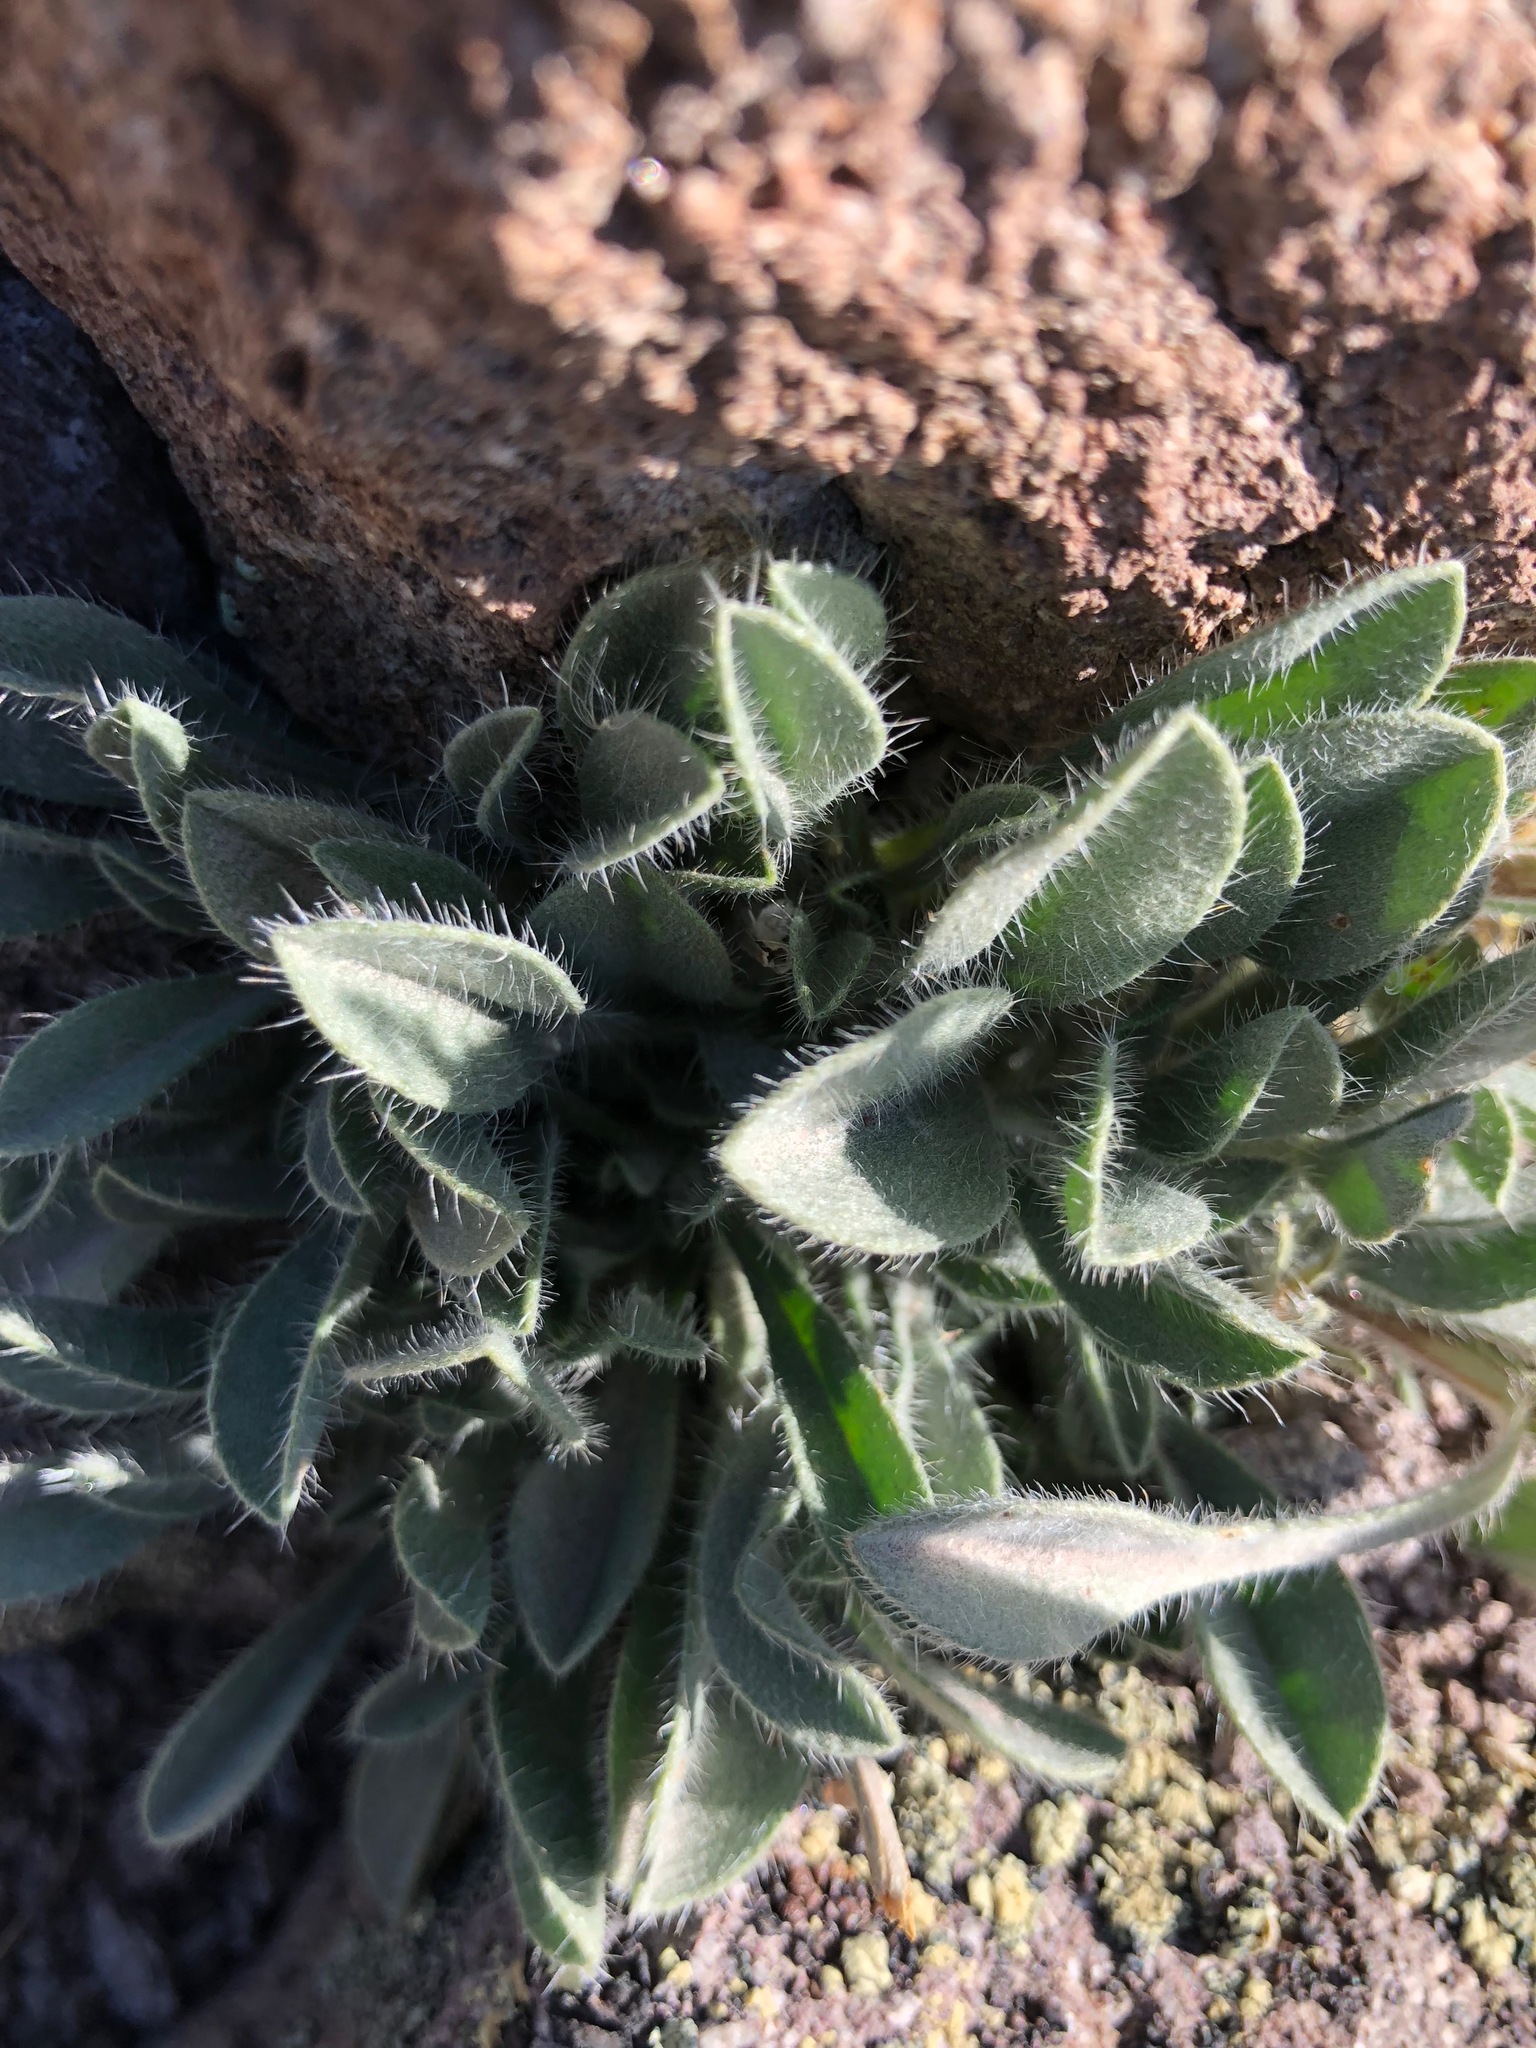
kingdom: Plantae
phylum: Tracheophyta
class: Magnoliopsida
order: Asterales
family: Asteraceae
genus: Hieracium
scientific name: Hieracium horridum
